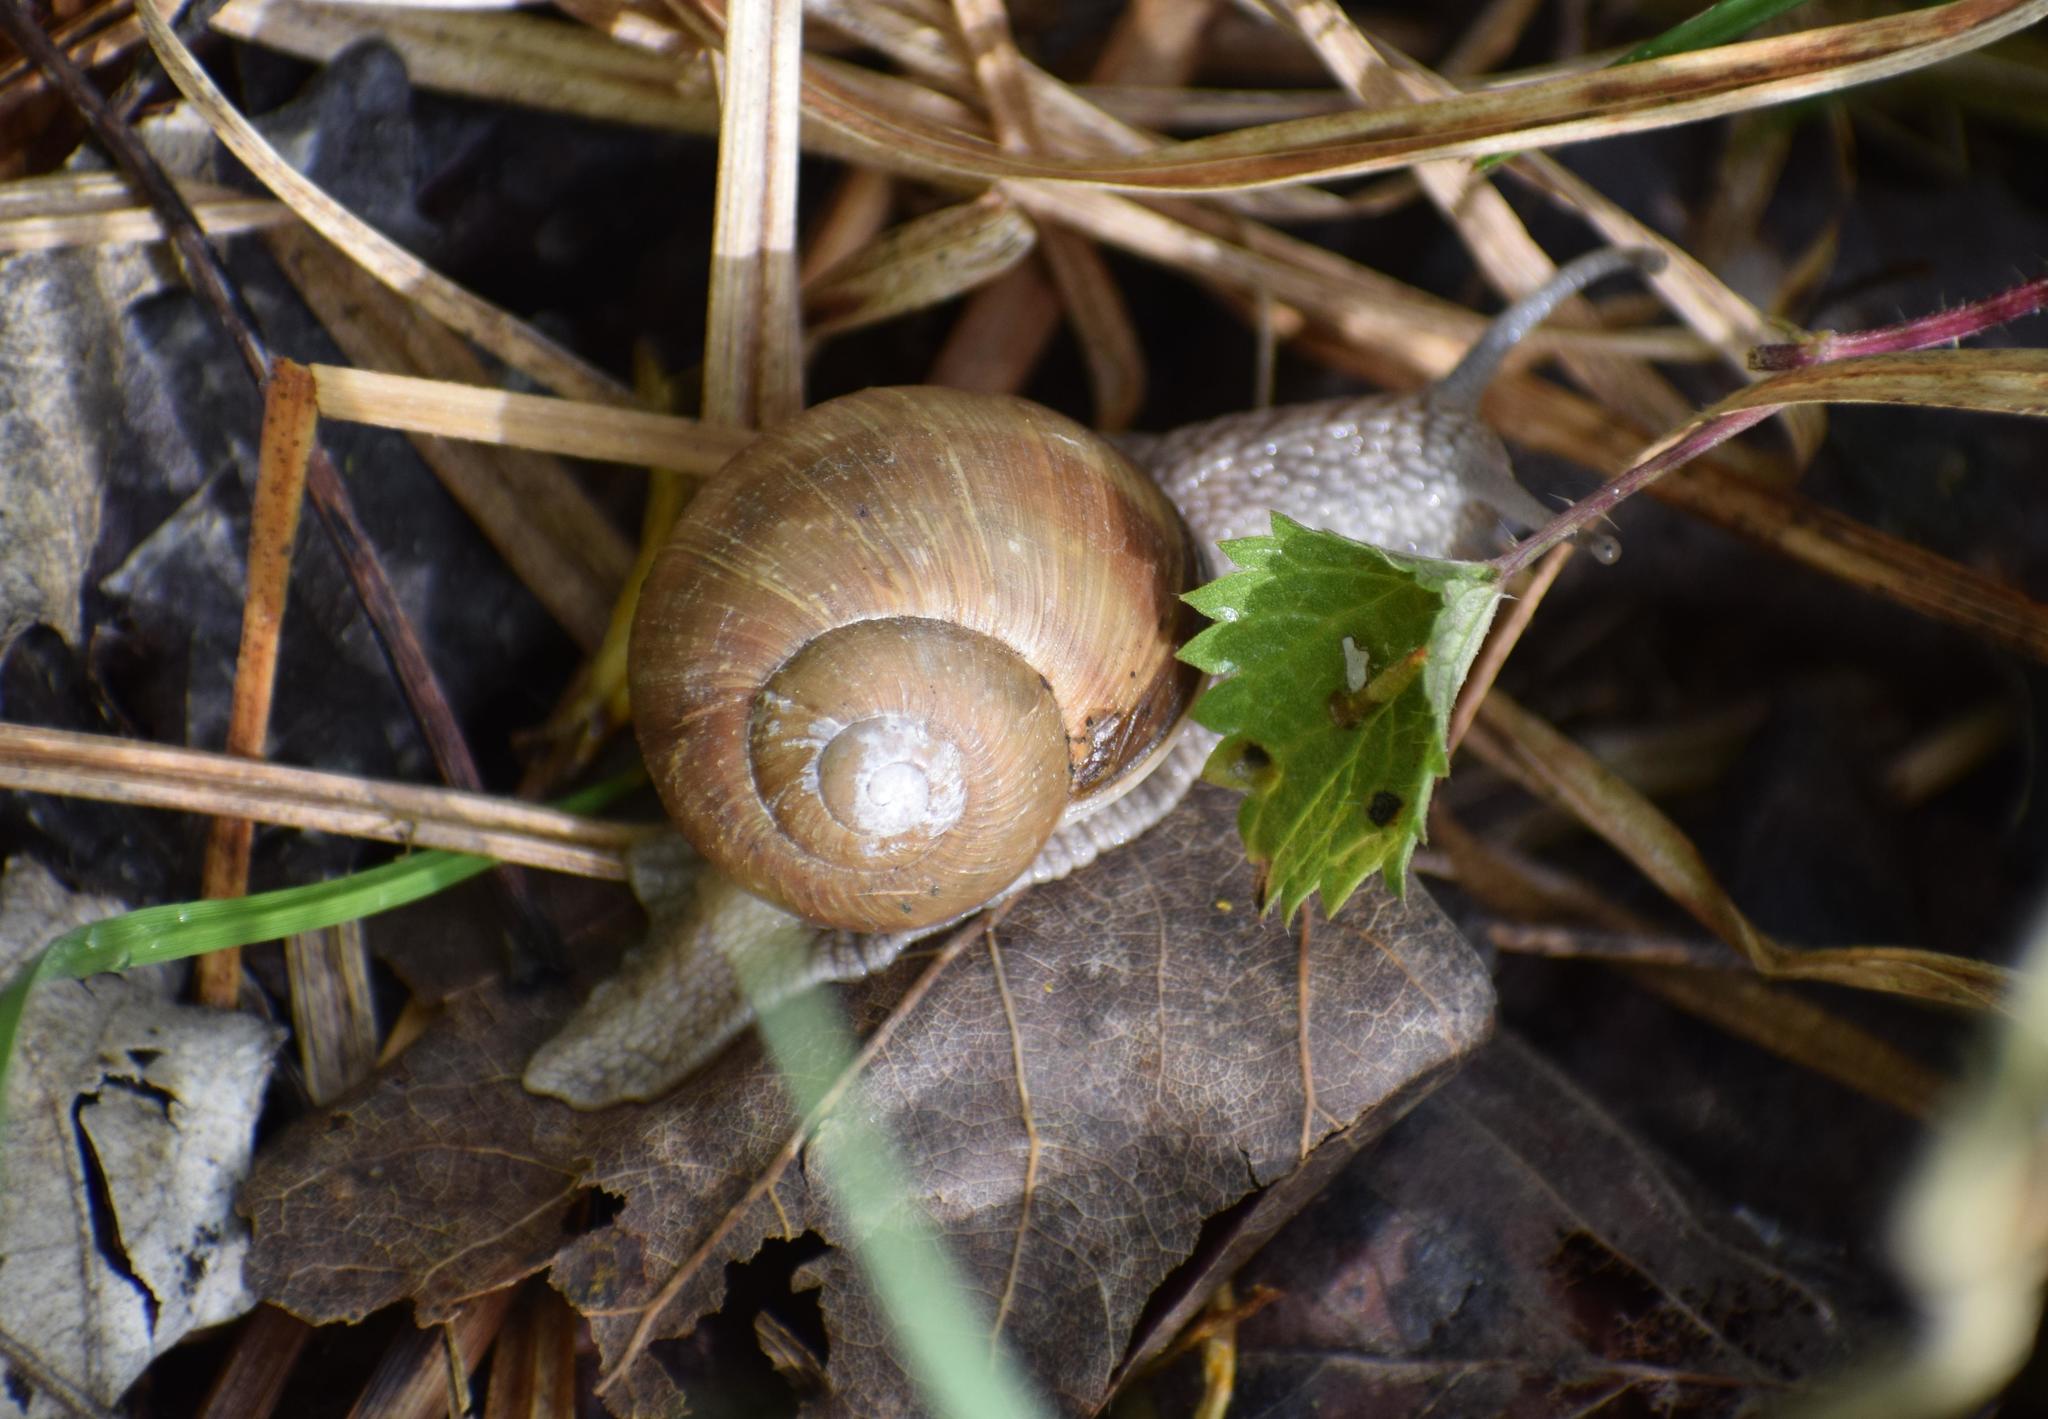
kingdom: Animalia
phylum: Mollusca
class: Gastropoda
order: Stylommatophora
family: Helicidae
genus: Helix
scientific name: Helix pomatia
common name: Roman snail
